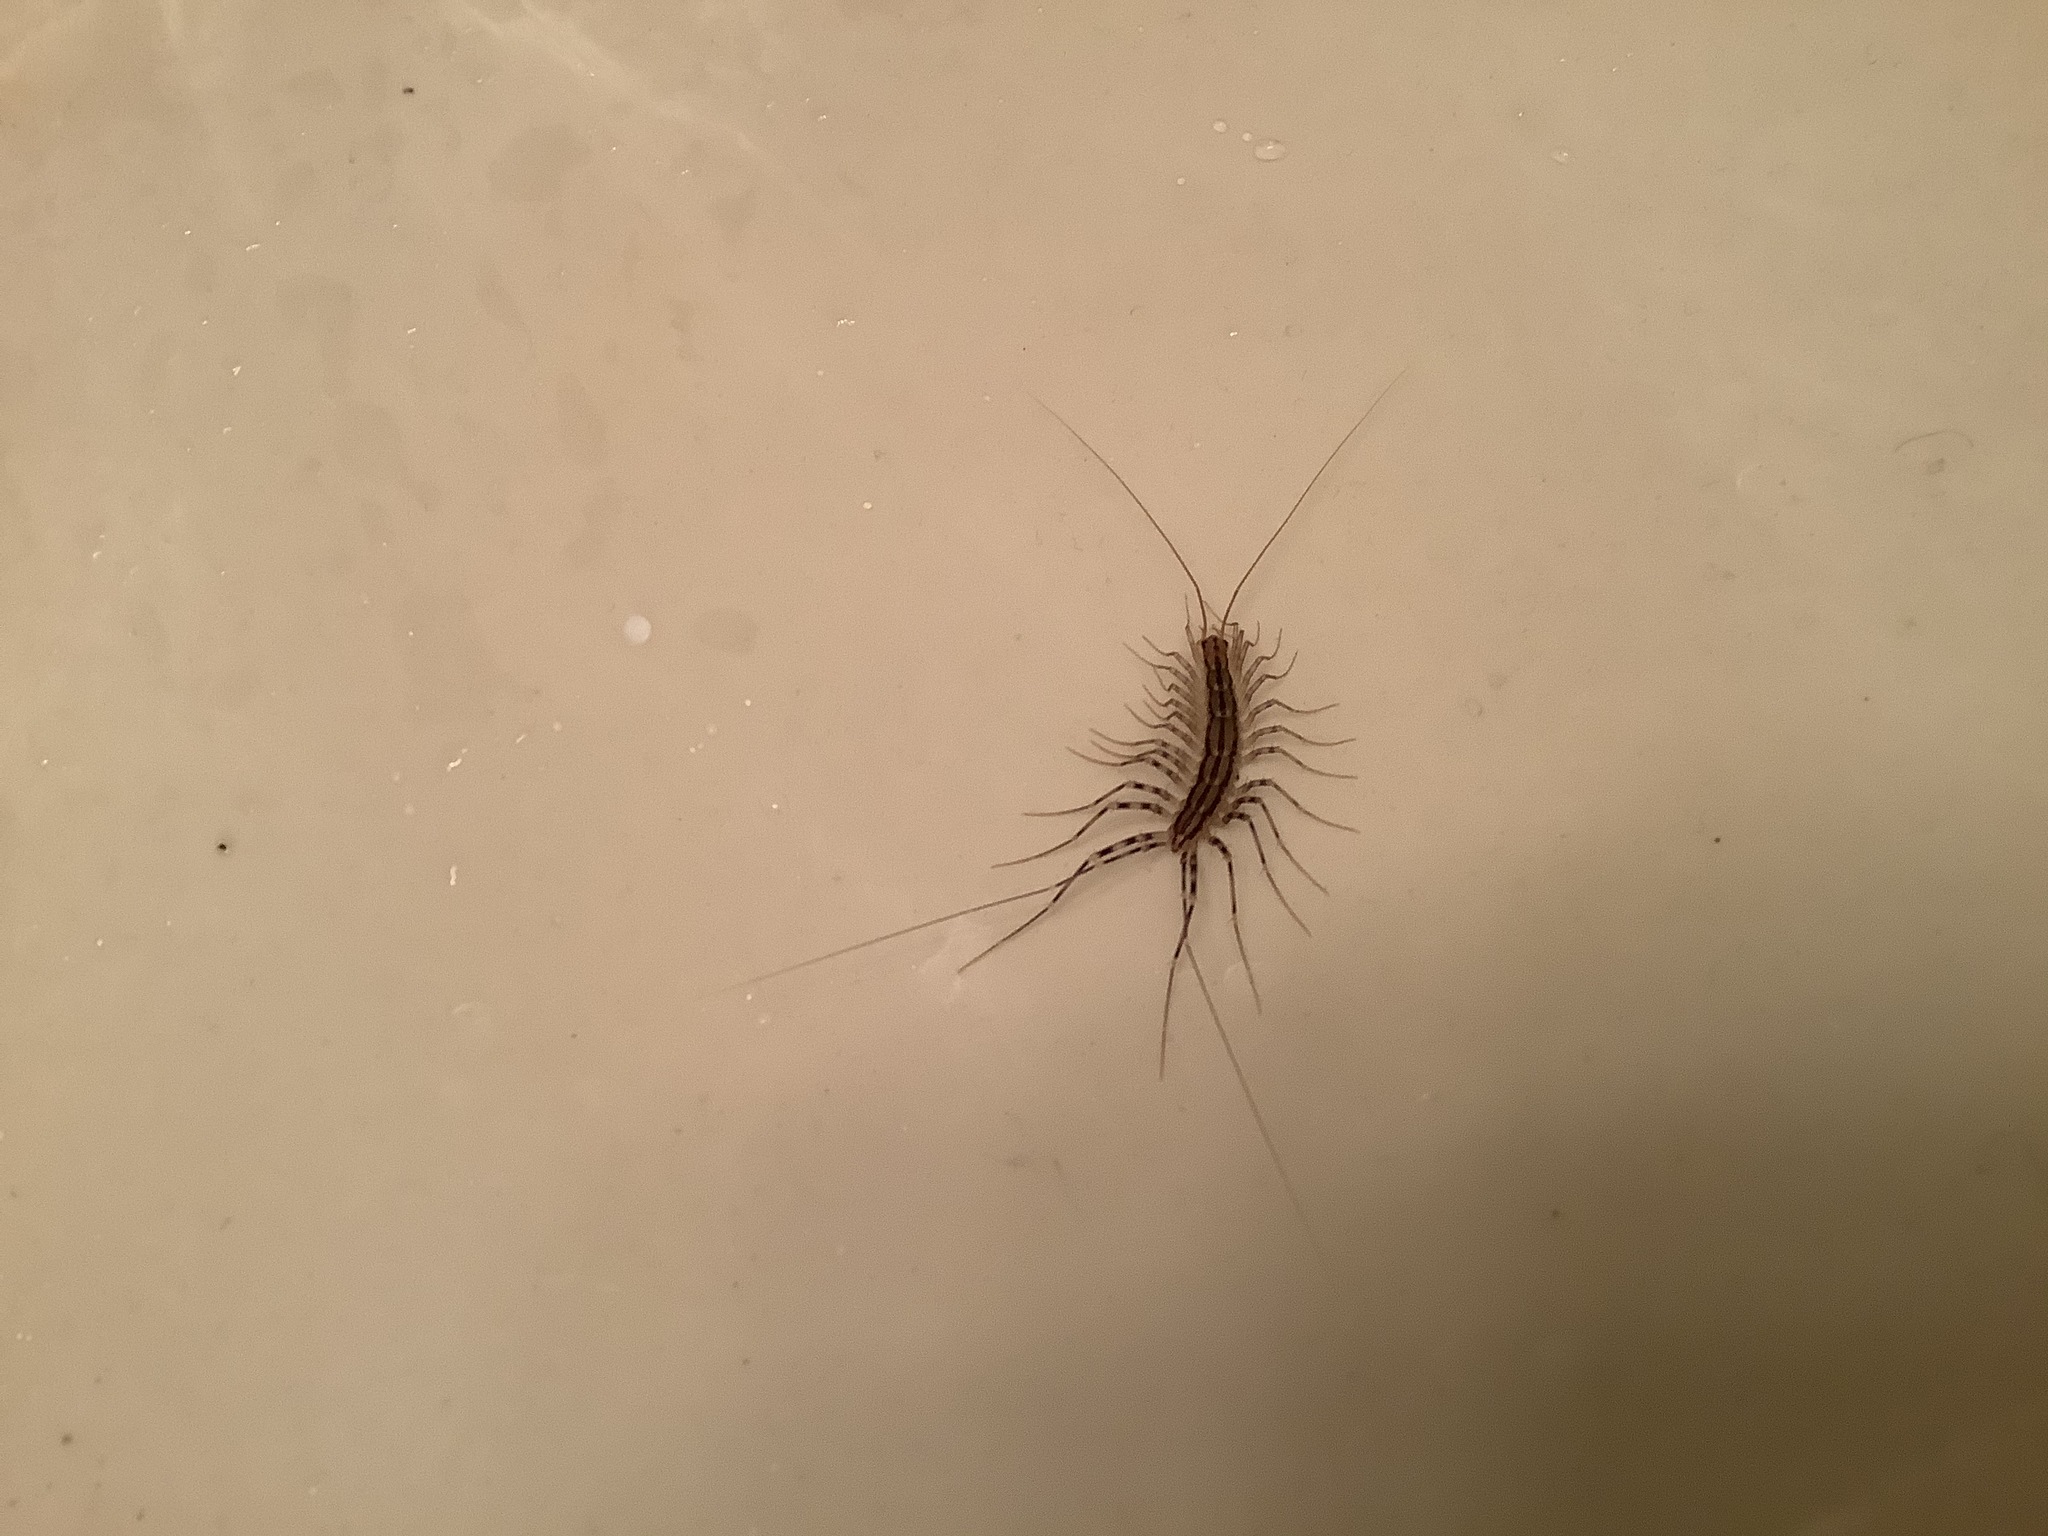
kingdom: Animalia
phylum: Arthropoda
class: Chilopoda
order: Scutigeromorpha
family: Scutigeridae
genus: Scutigera
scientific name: Scutigera coleoptrata
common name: House centipede
